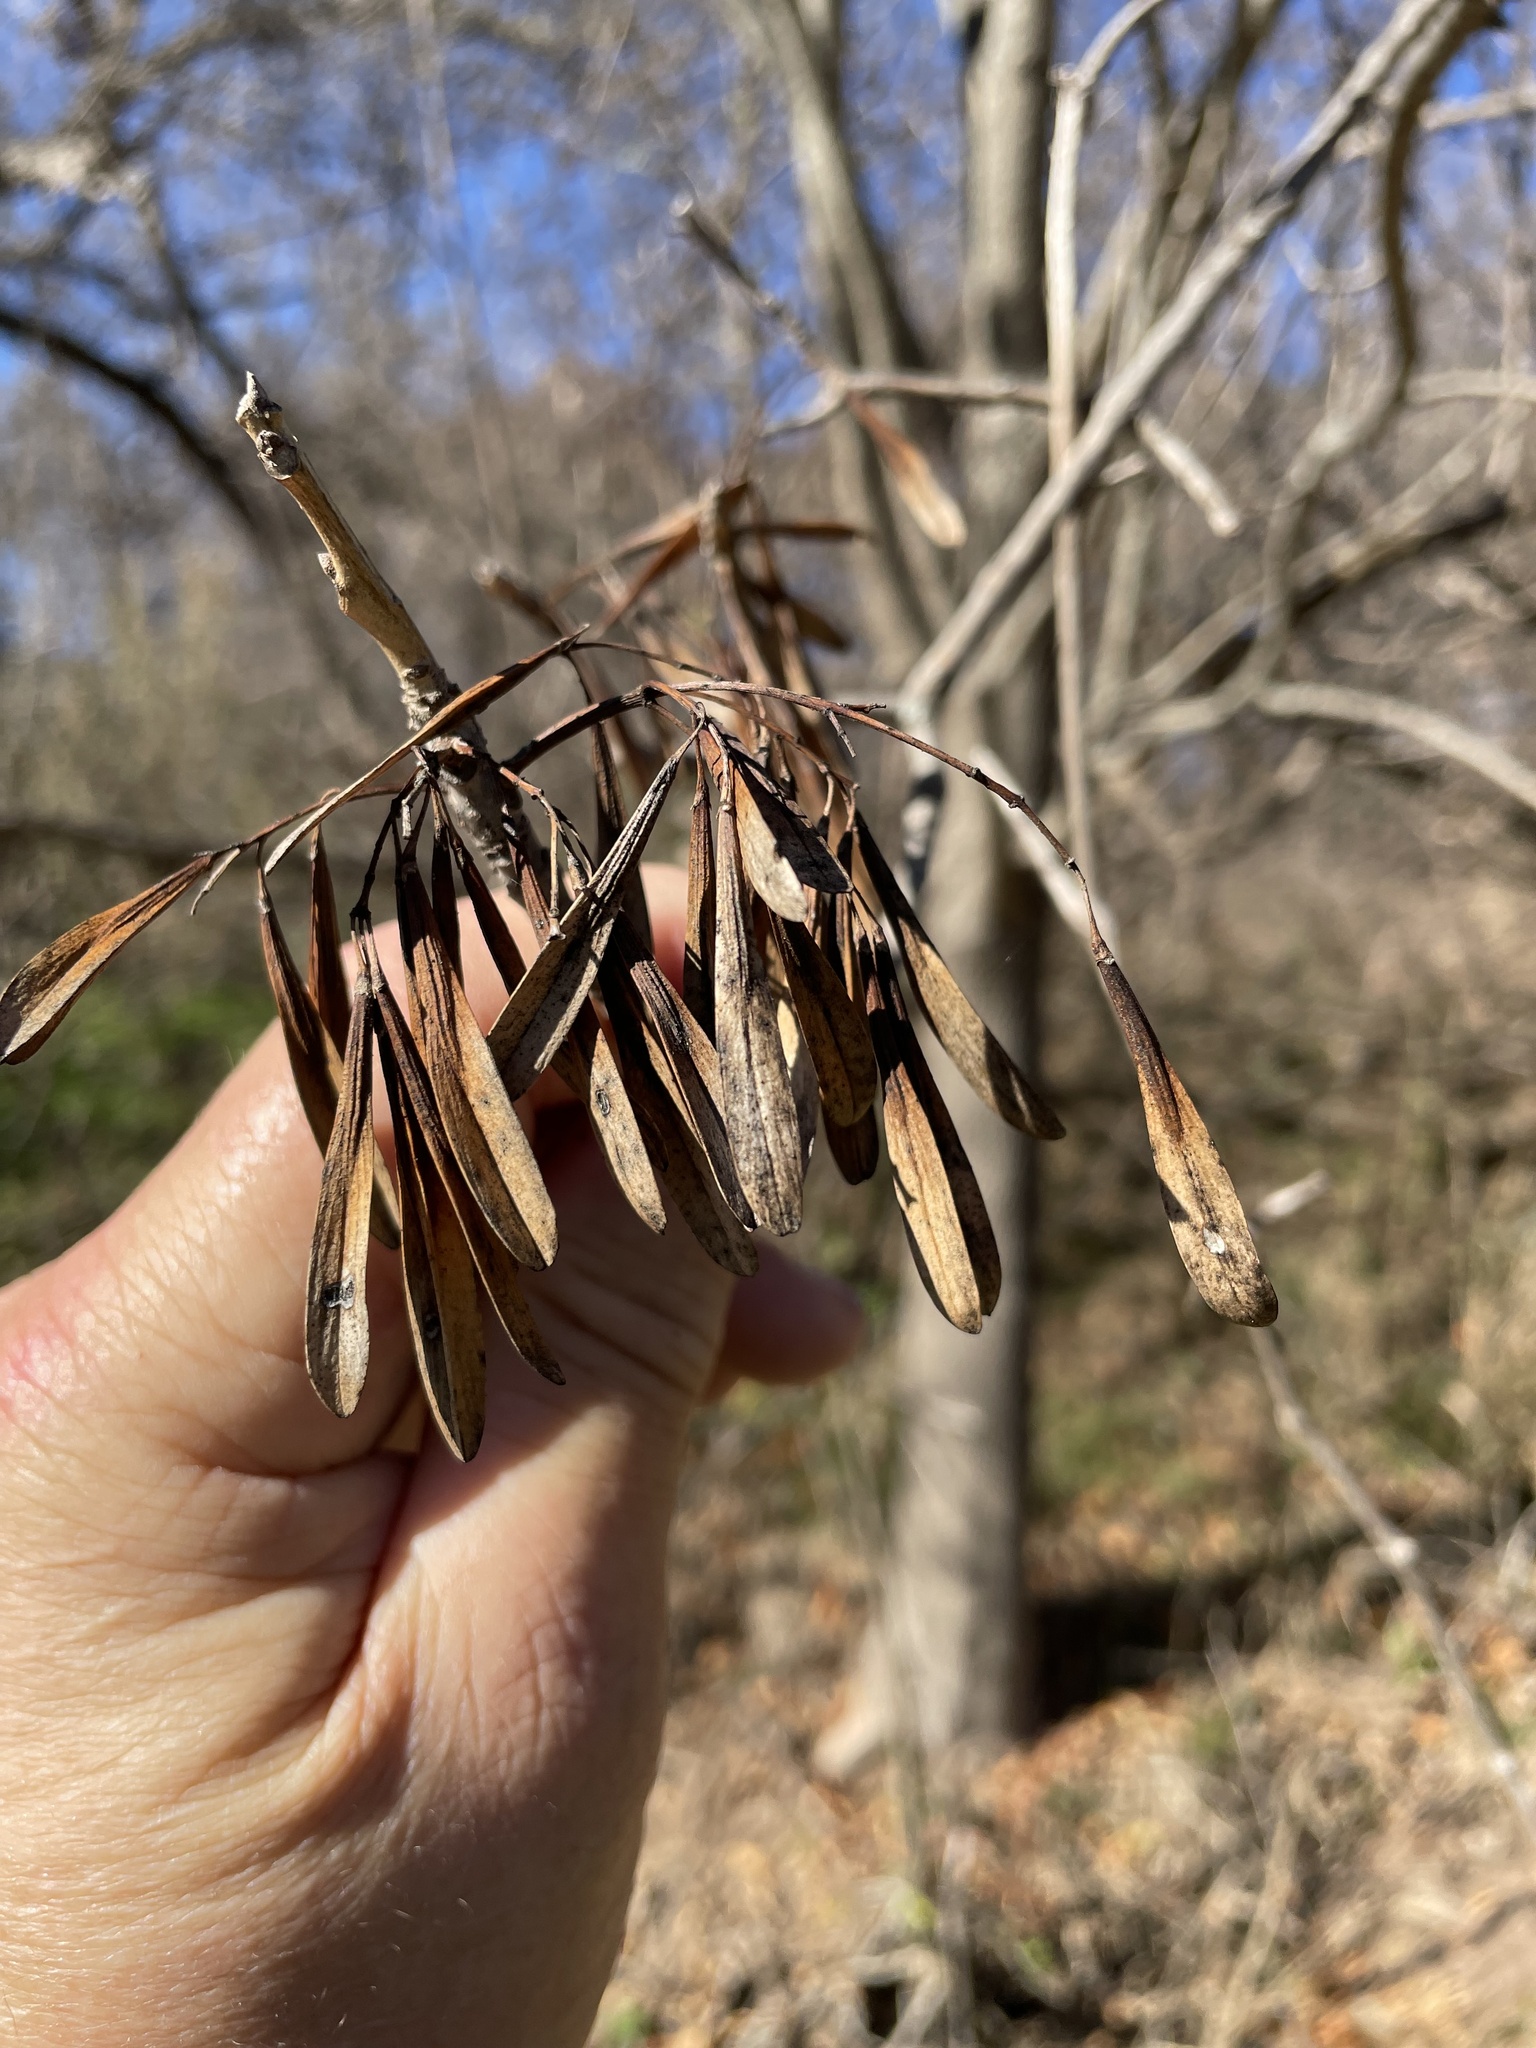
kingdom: Plantae
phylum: Tracheophyta
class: Magnoliopsida
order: Lamiales
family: Oleaceae
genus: Fraxinus
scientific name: Fraxinus berlandieriana
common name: Berlandier ash
